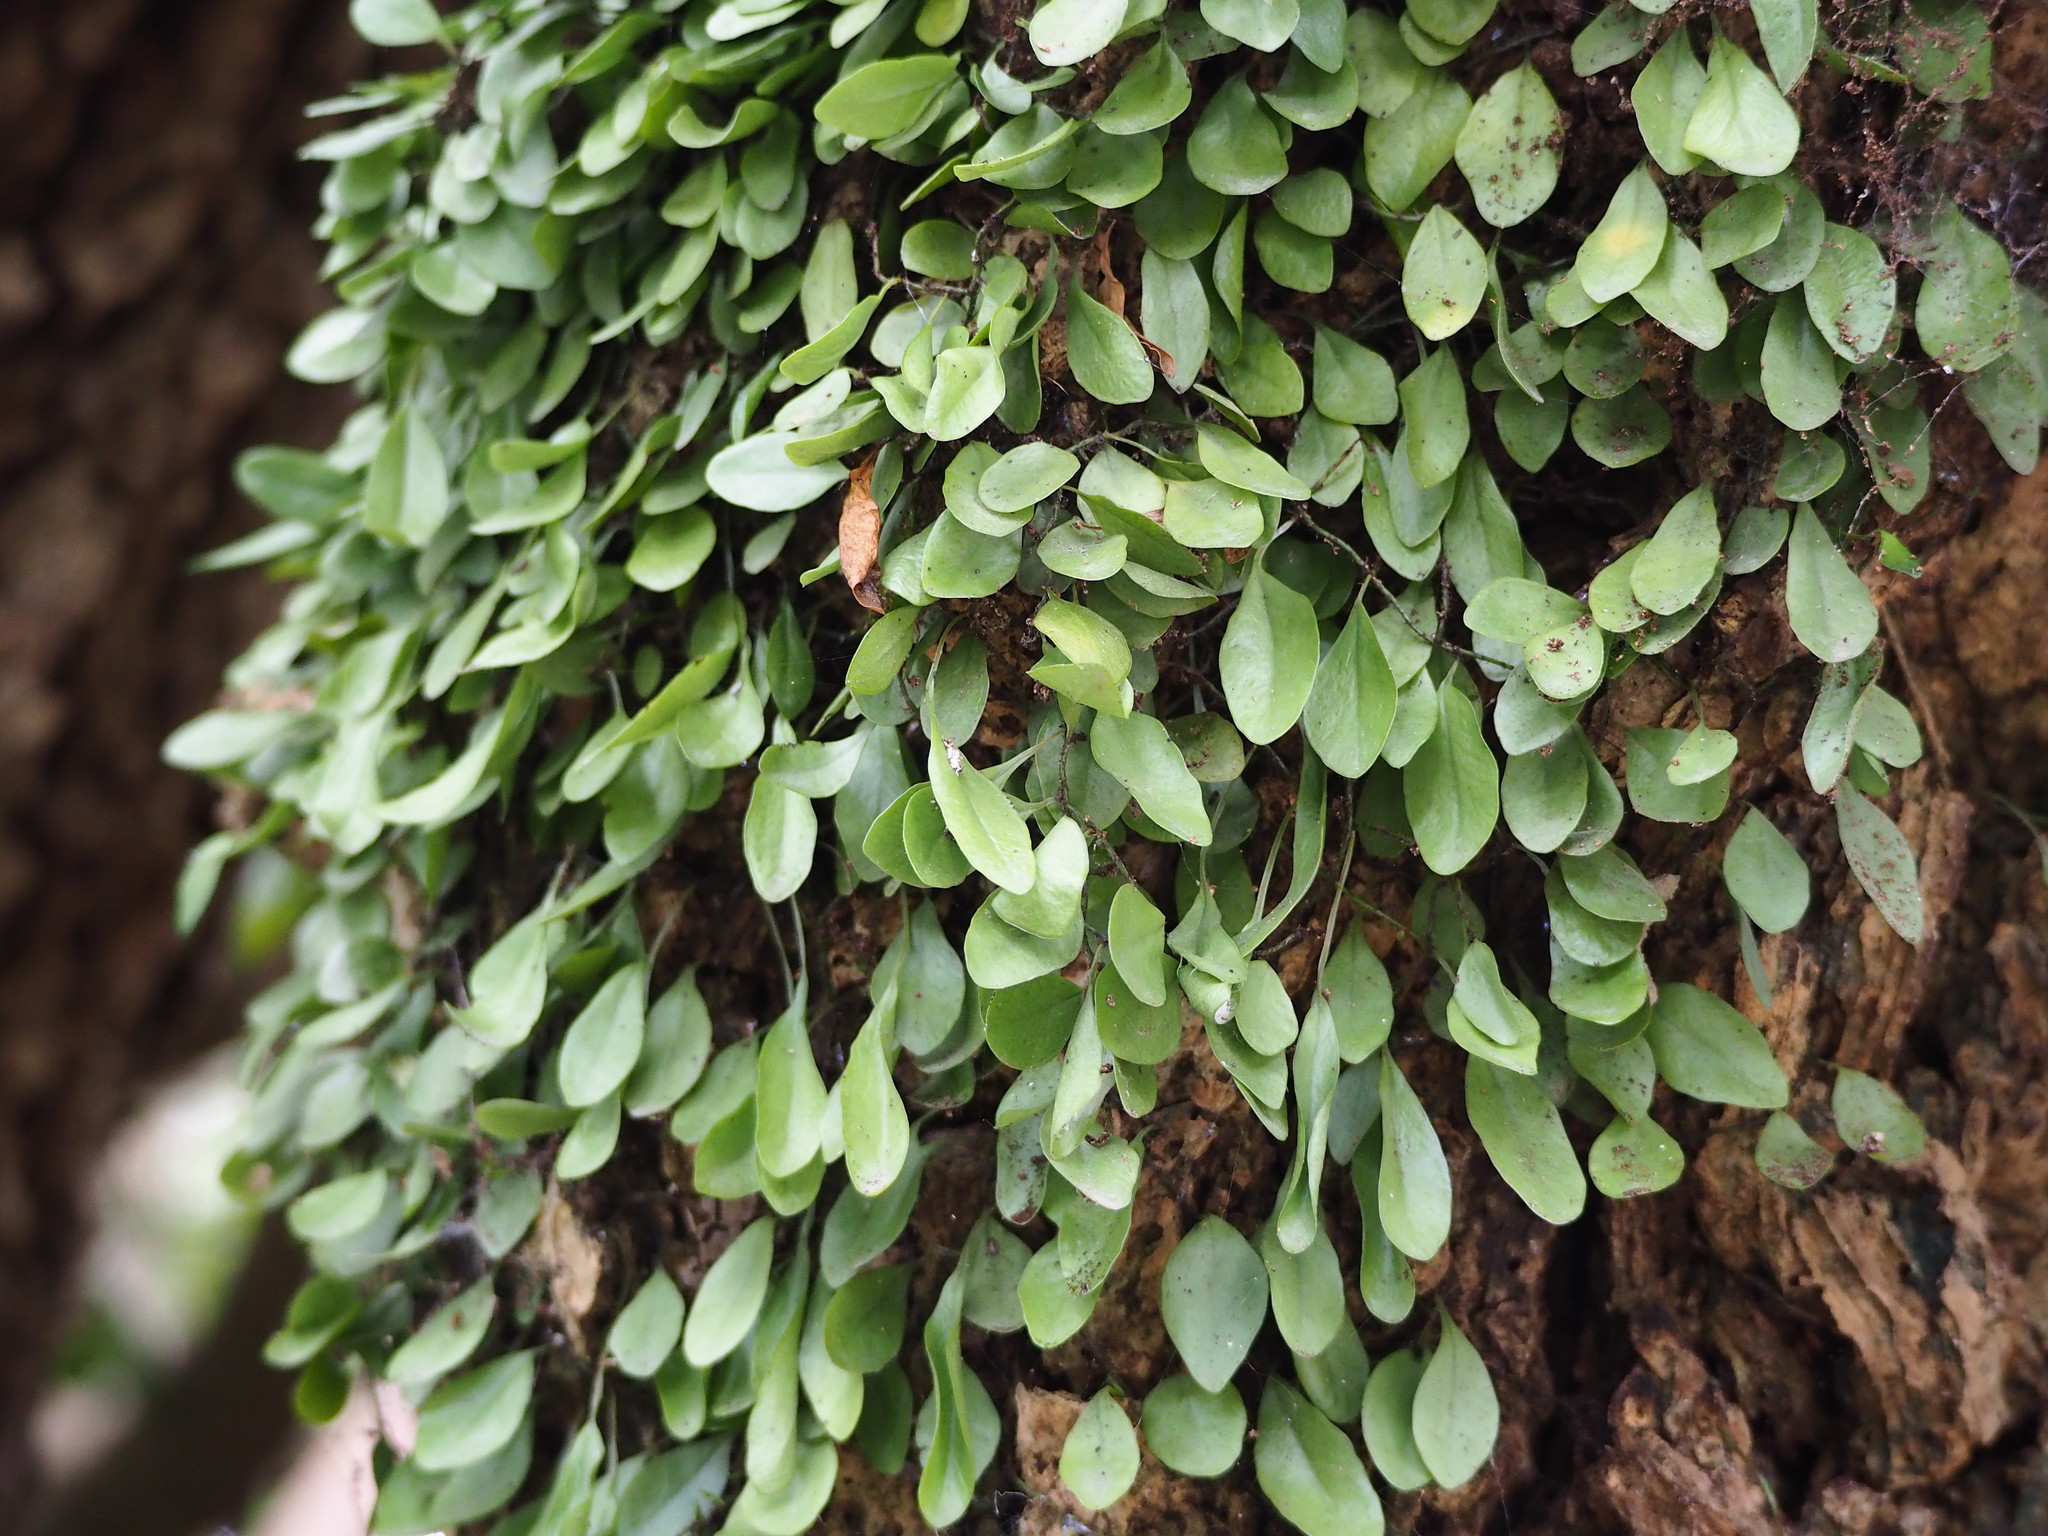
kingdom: Plantae
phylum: Tracheophyta
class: Polypodiopsida
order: Polypodiales
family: Polypodiaceae
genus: Lepisorus
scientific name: Lepisorus microphyllus
